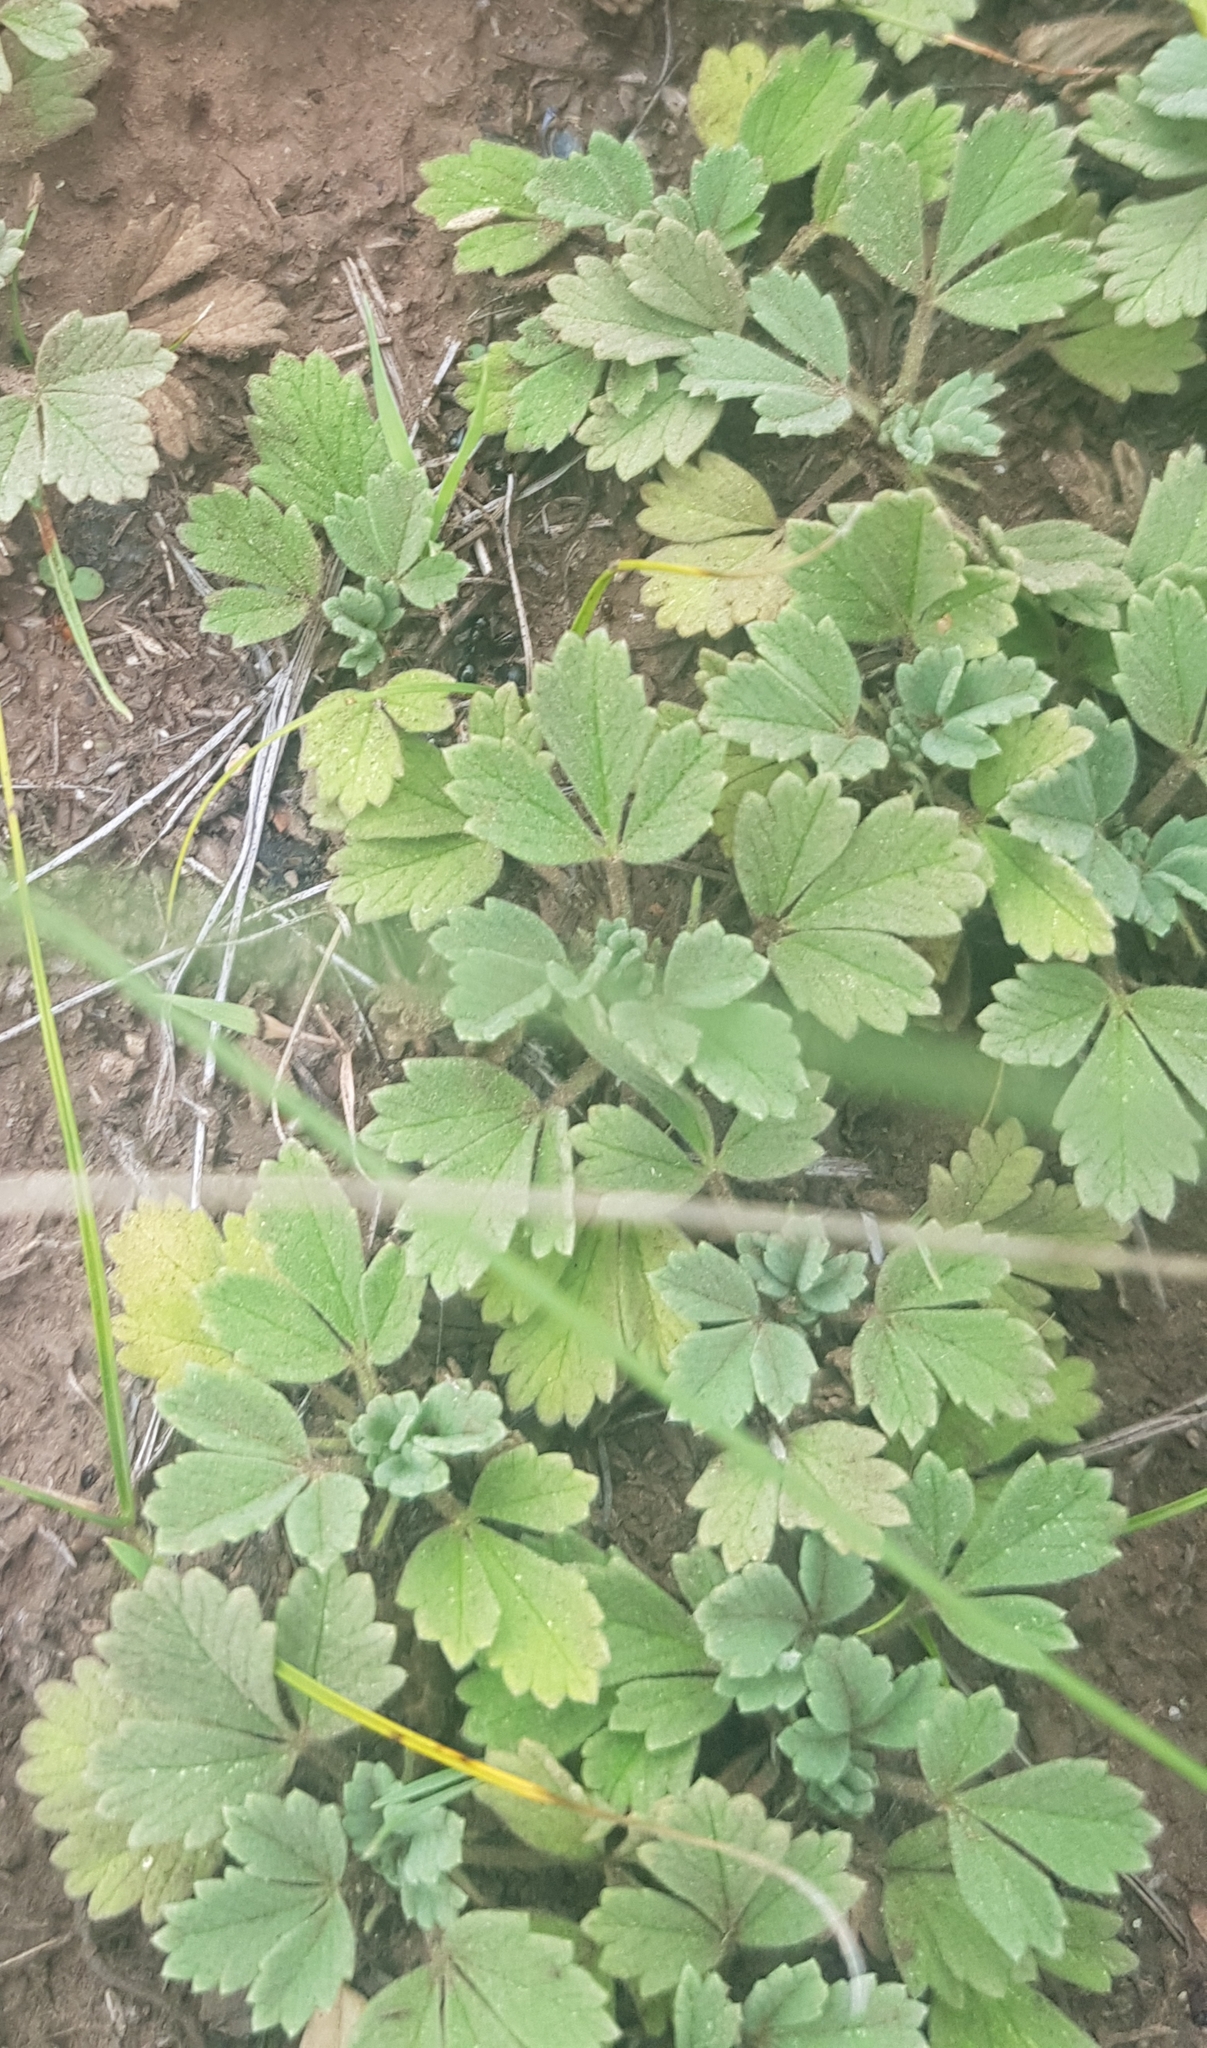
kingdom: Plantae
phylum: Tracheophyta
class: Magnoliopsida
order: Rosales
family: Rosaceae
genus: Potentilla
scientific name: Potentilla acaulis
